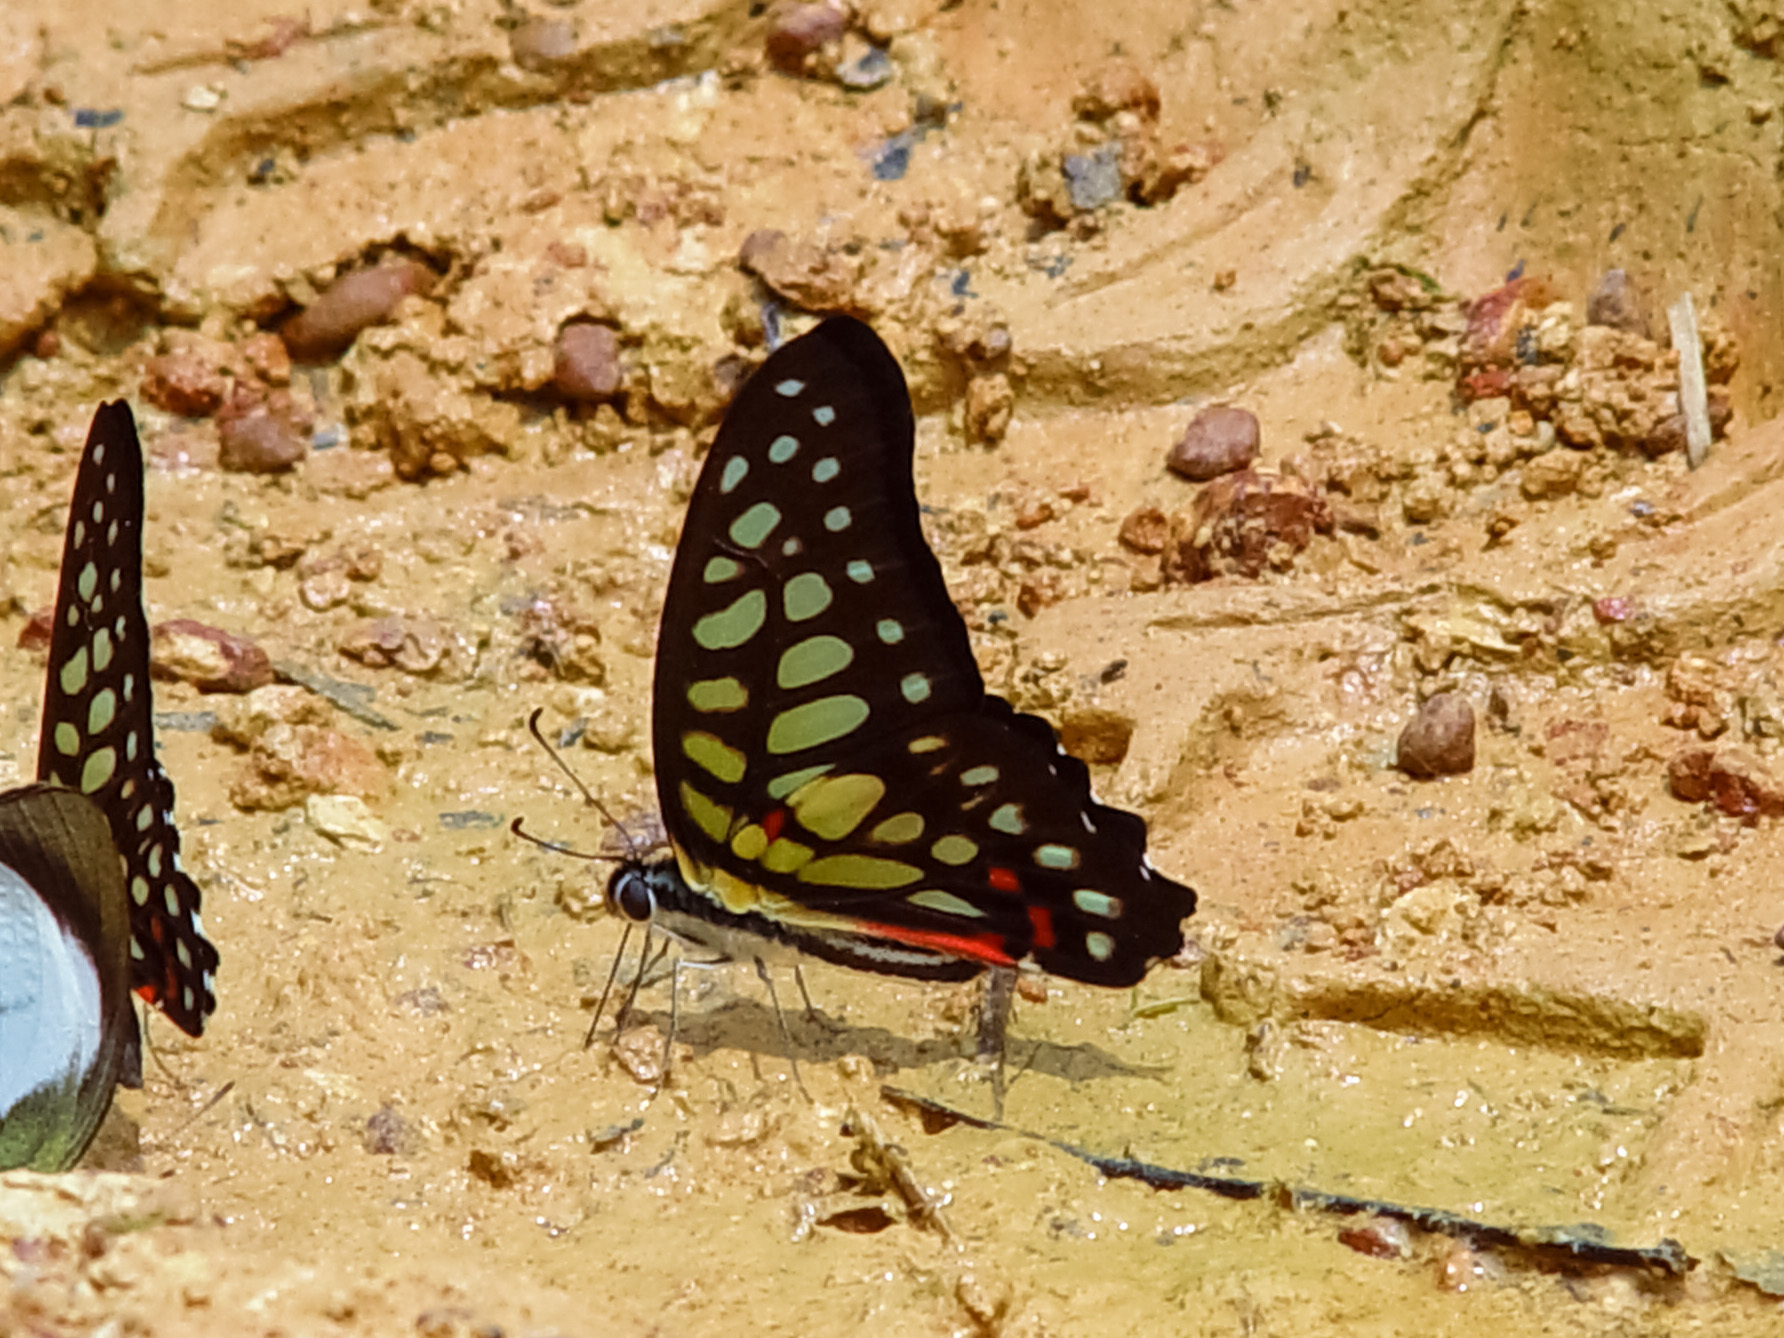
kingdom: Animalia
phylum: Arthropoda
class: Insecta
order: Lepidoptera
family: Papilionidae
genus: Graphium
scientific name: Graphium arycles
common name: Spotted jay
